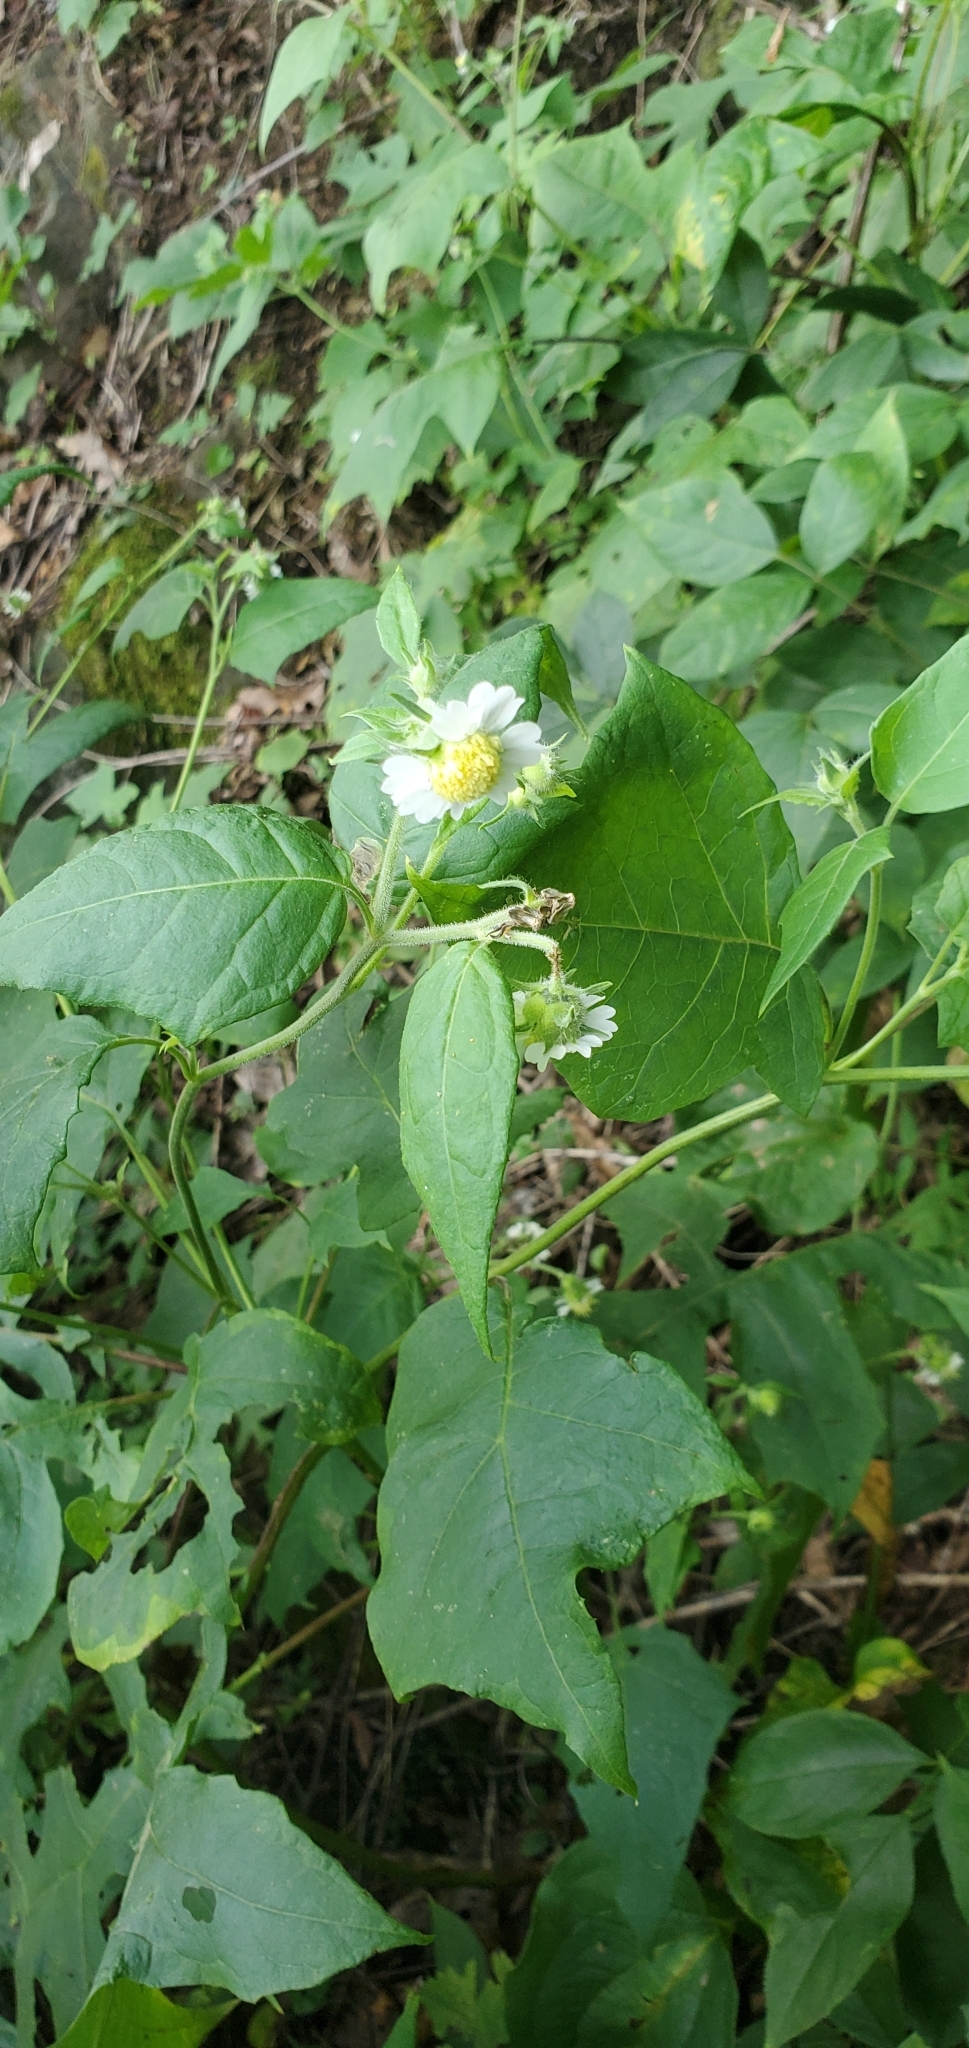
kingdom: Plantae
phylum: Tracheophyta
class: Magnoliopsida
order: Asterales
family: Asteraceae
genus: Polymnia
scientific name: Polymnia canadensis
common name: Pale-flowered leafcup
